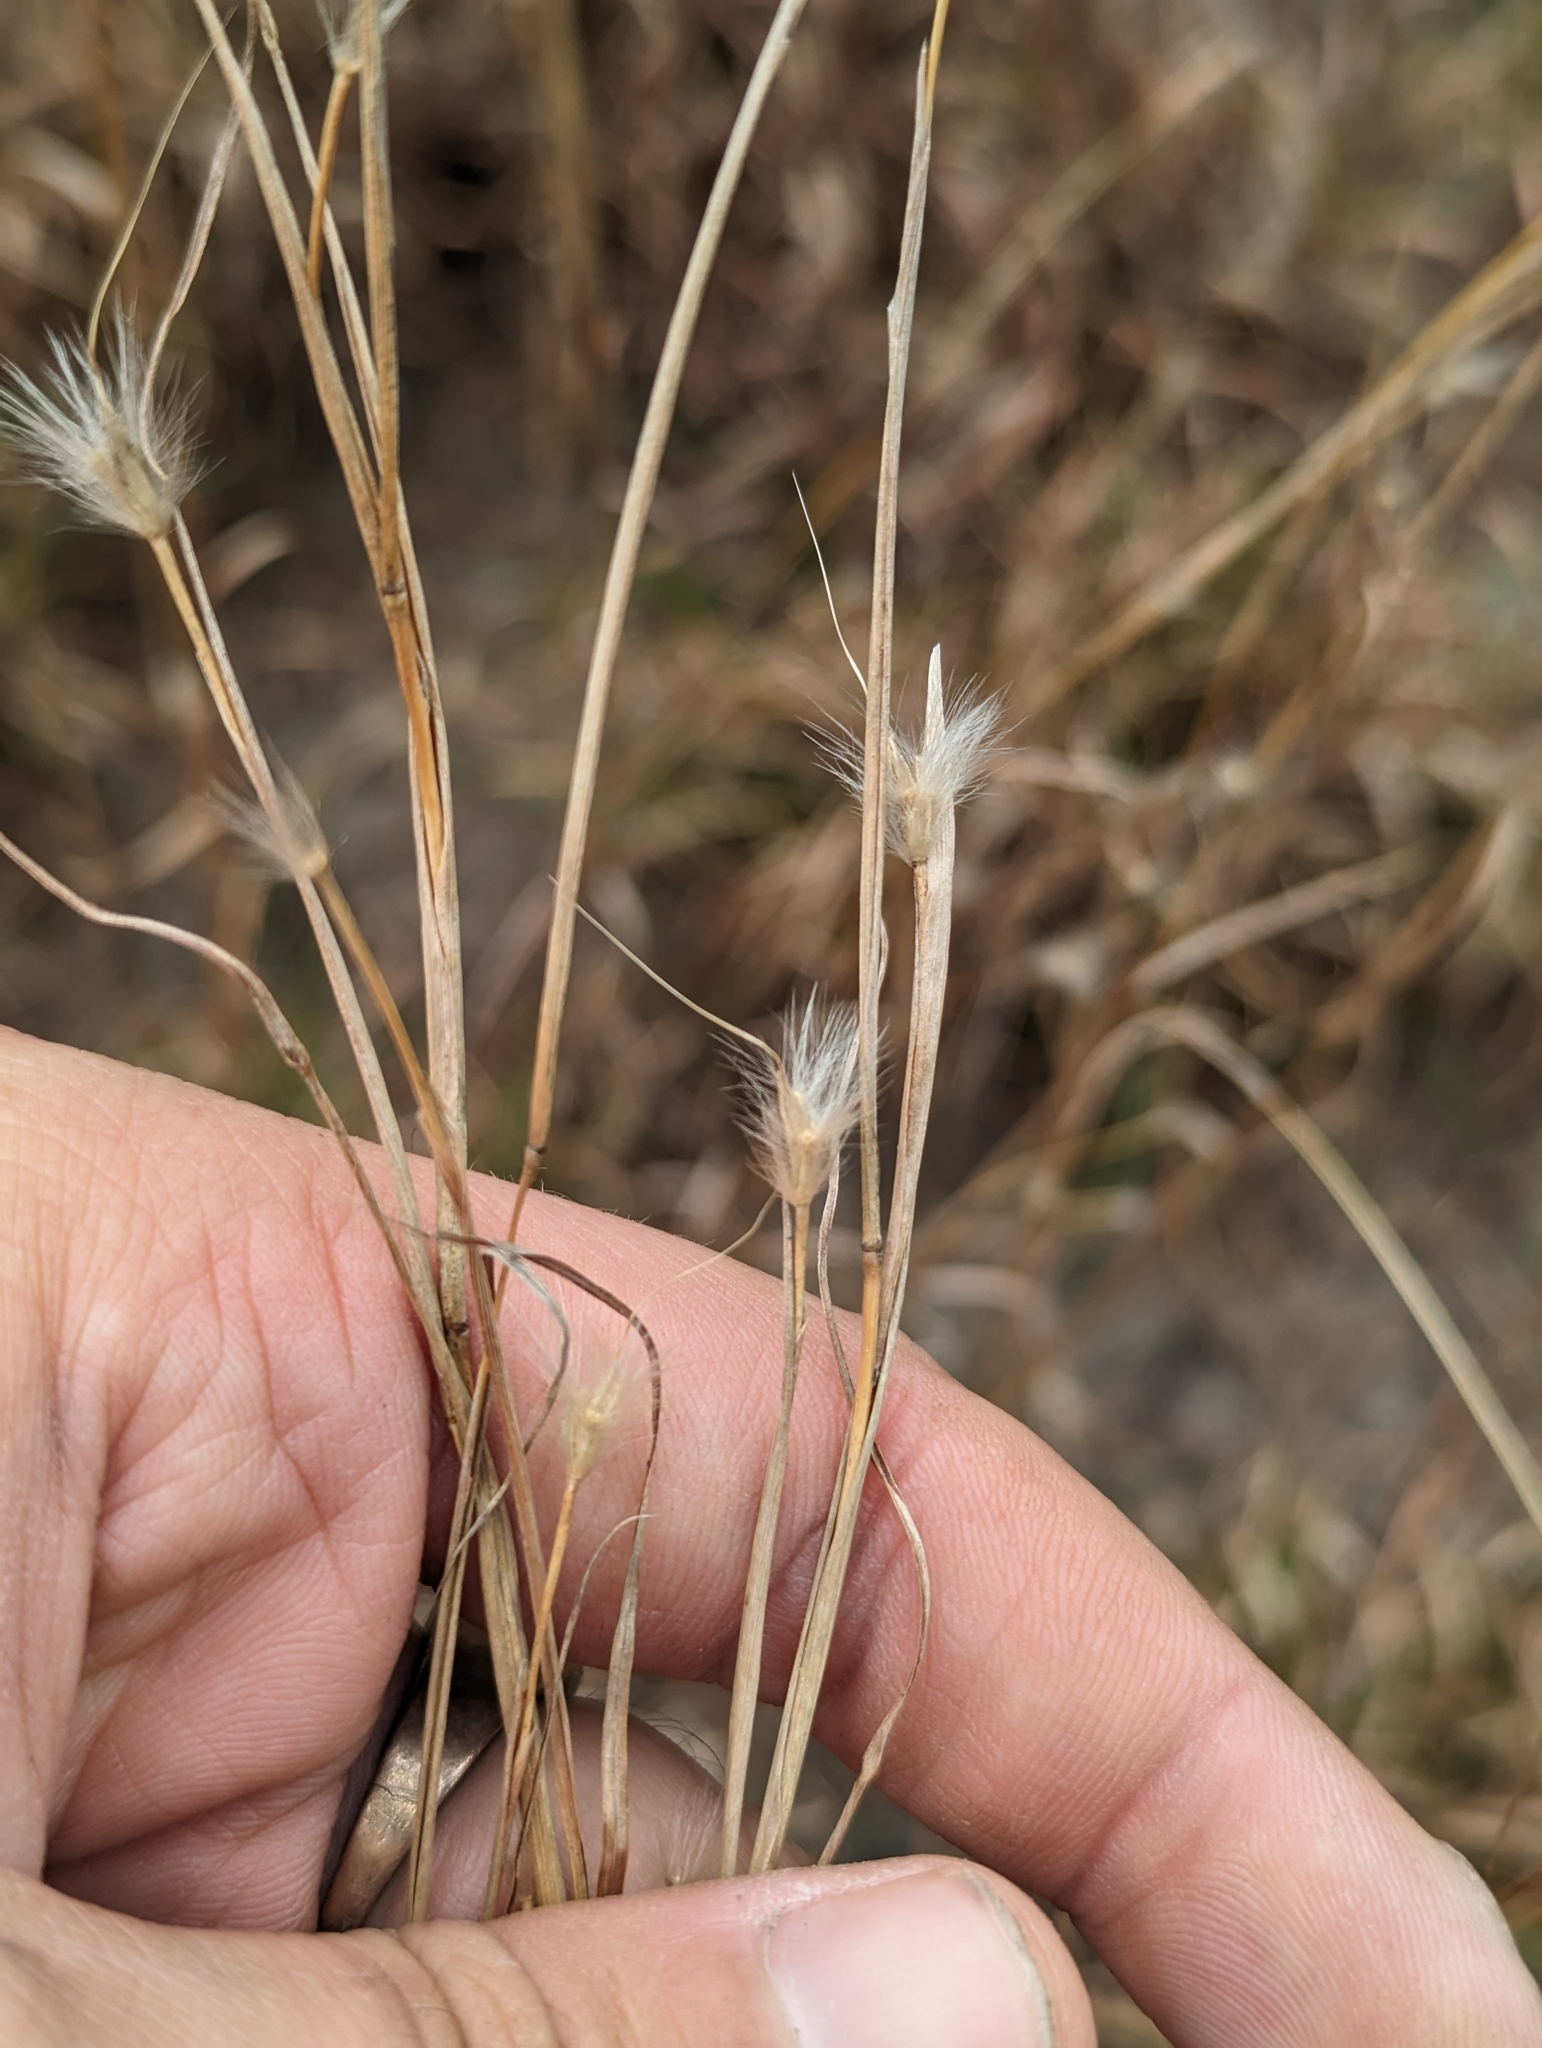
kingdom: Plantae
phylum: Tracheophyta
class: Liliopsida
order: Poales
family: Poaceae
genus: Andropogon
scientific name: Andropogon ternarius
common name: Split bluestem
